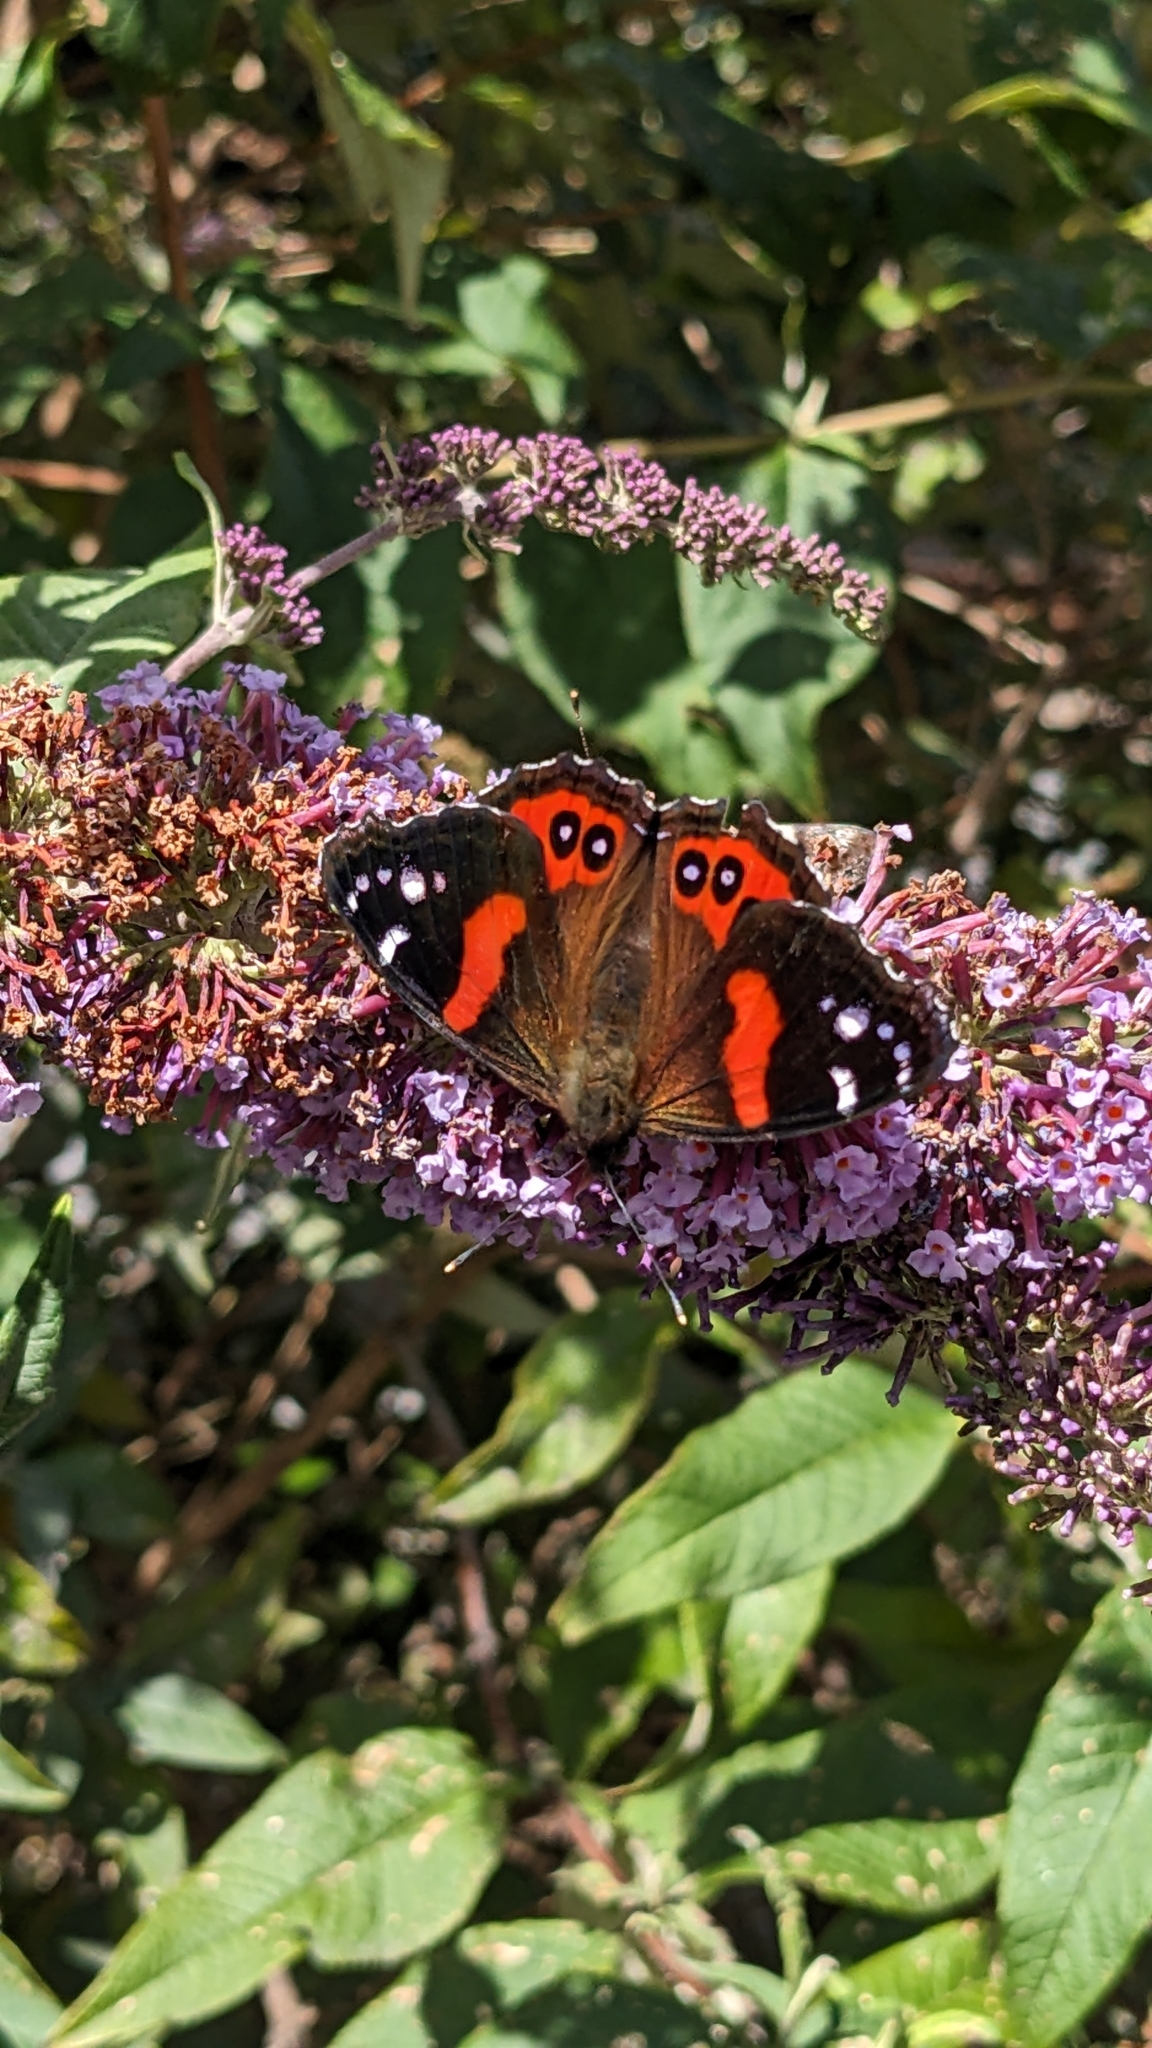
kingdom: Animalia
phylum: Arthropoda
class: Insecta
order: Lepidoptera
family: Nymphalidae
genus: Vanessa
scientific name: Vanessa gonerilla
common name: New zealand red admiral
